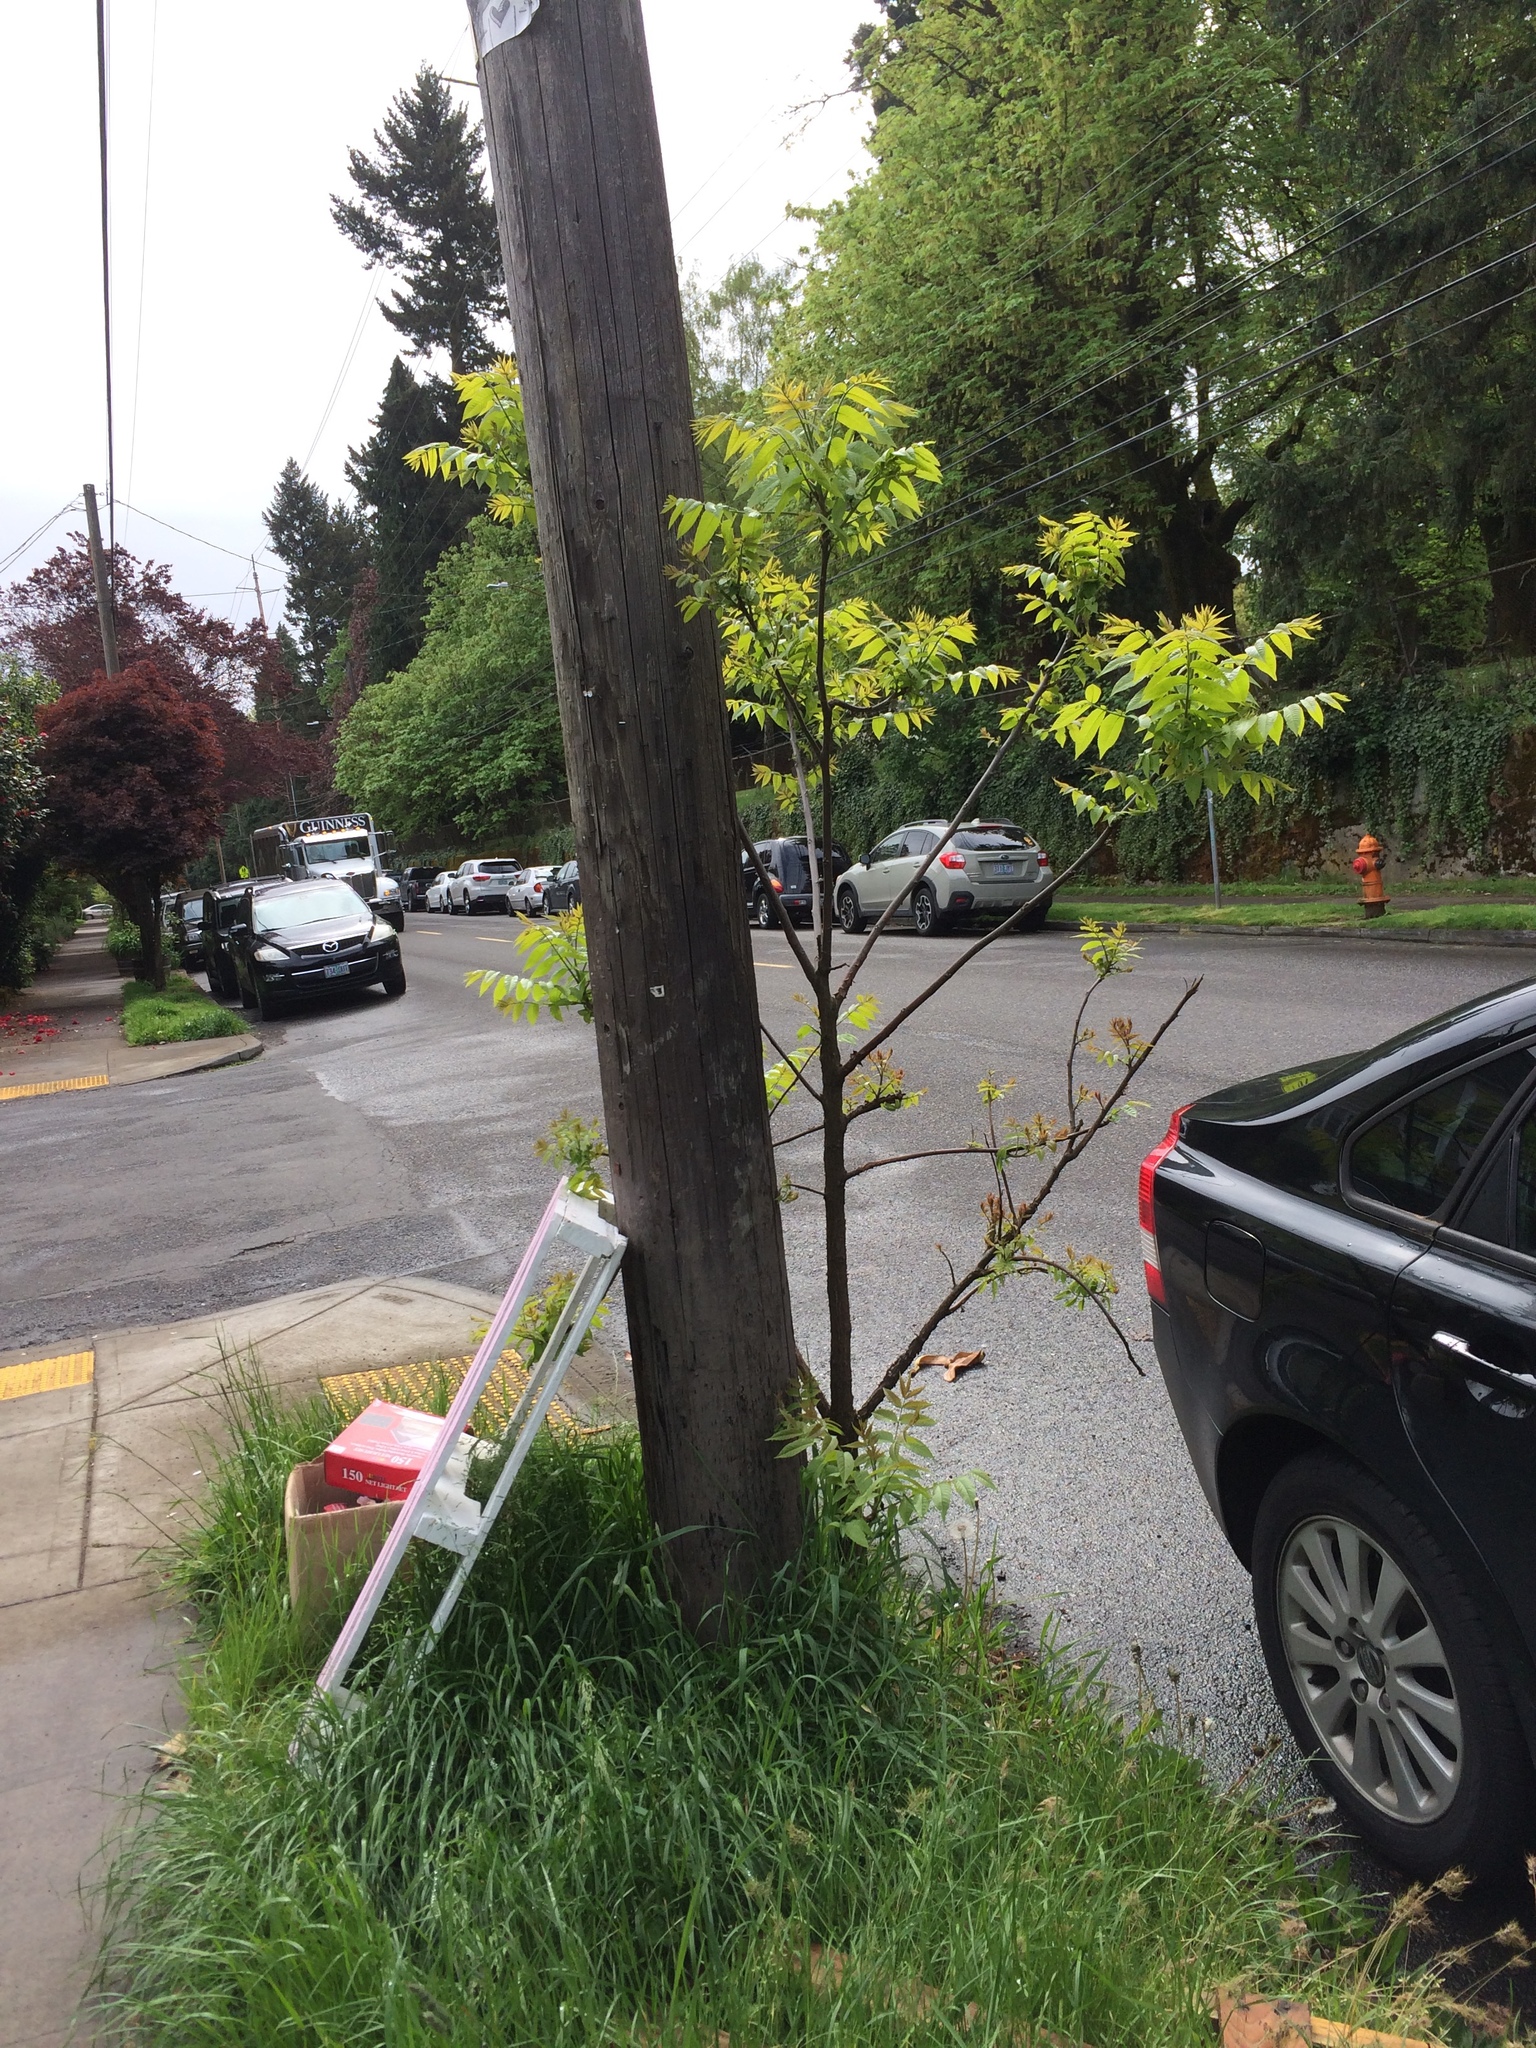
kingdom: Plantae
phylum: Tracheophyta
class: Magnoliopsida
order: Fagales
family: Juglandaceae
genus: Juglans
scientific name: Juglans nigra
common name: Black walnut
